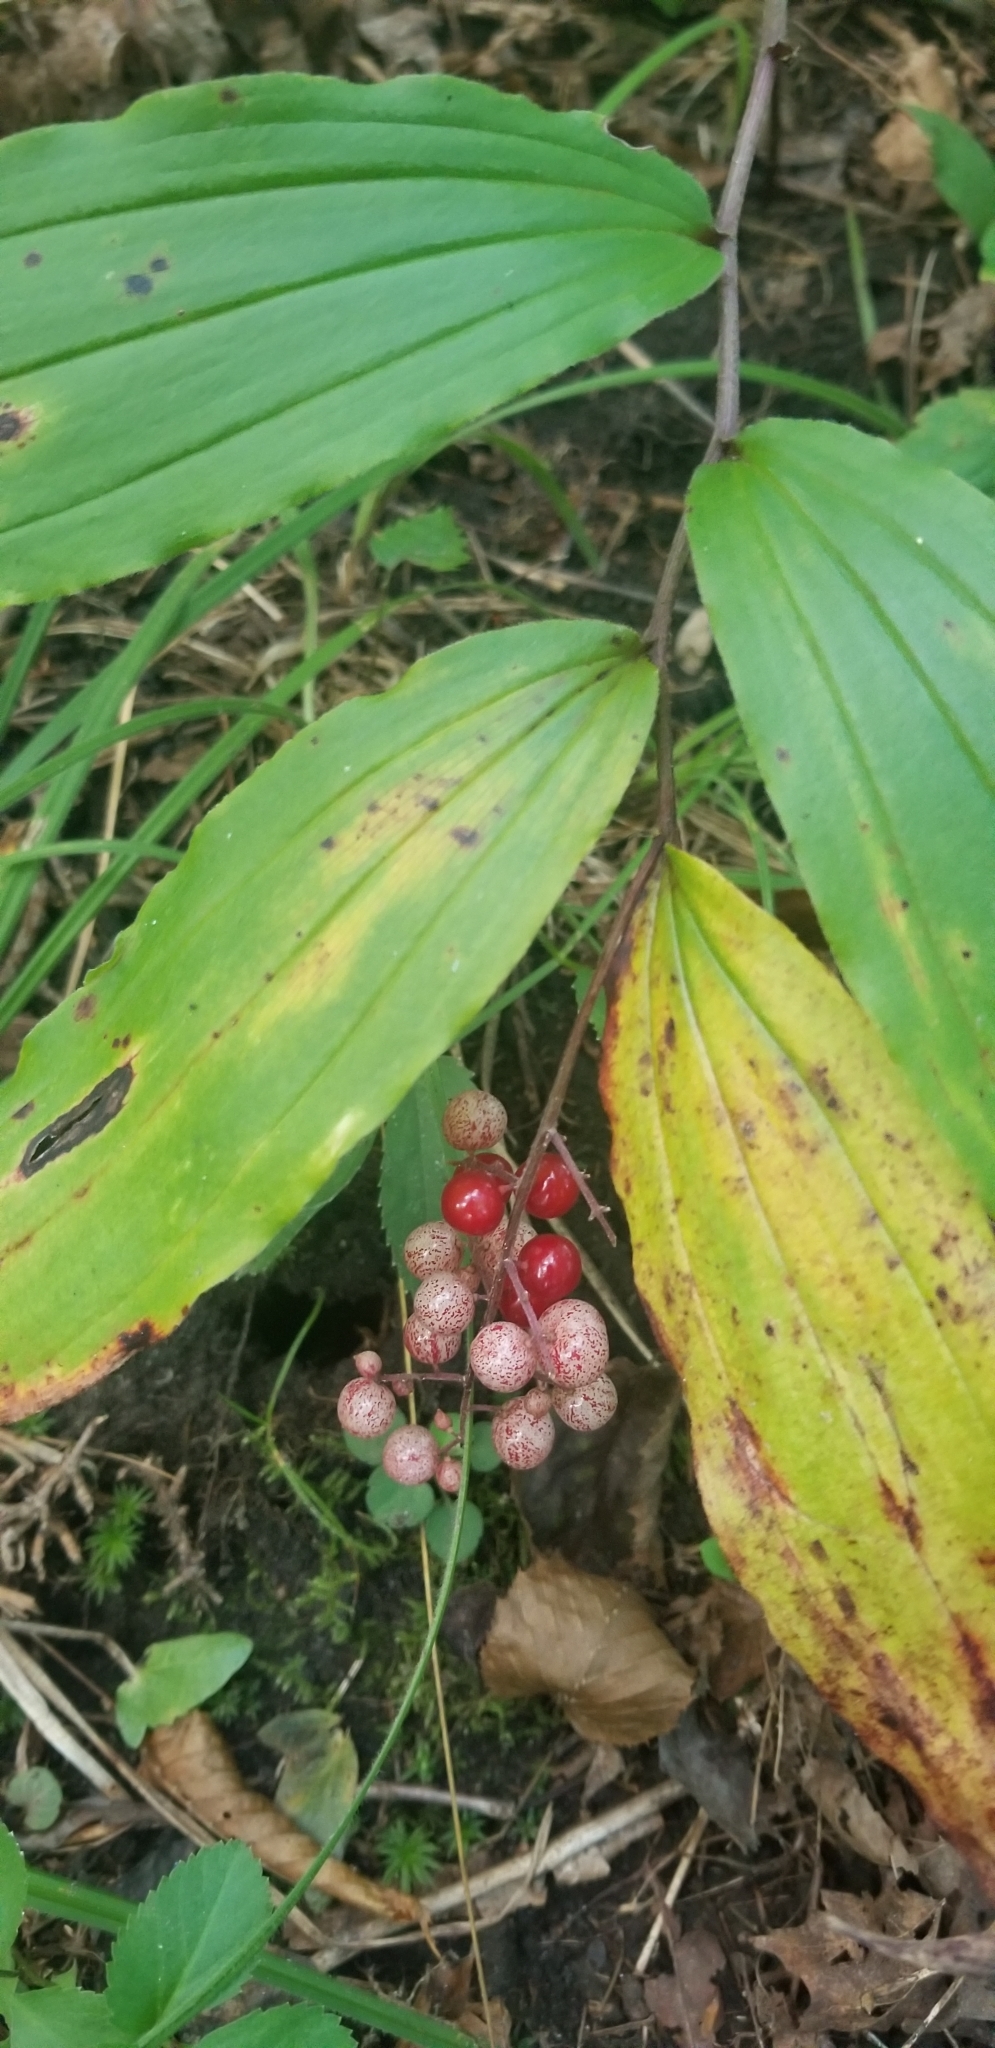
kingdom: Plantae
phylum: Tracheophyta
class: Liliopsida
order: Asparagales
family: Asparagaceae
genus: Maianthemum
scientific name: Maianthemum racemosum
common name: False spikenard
